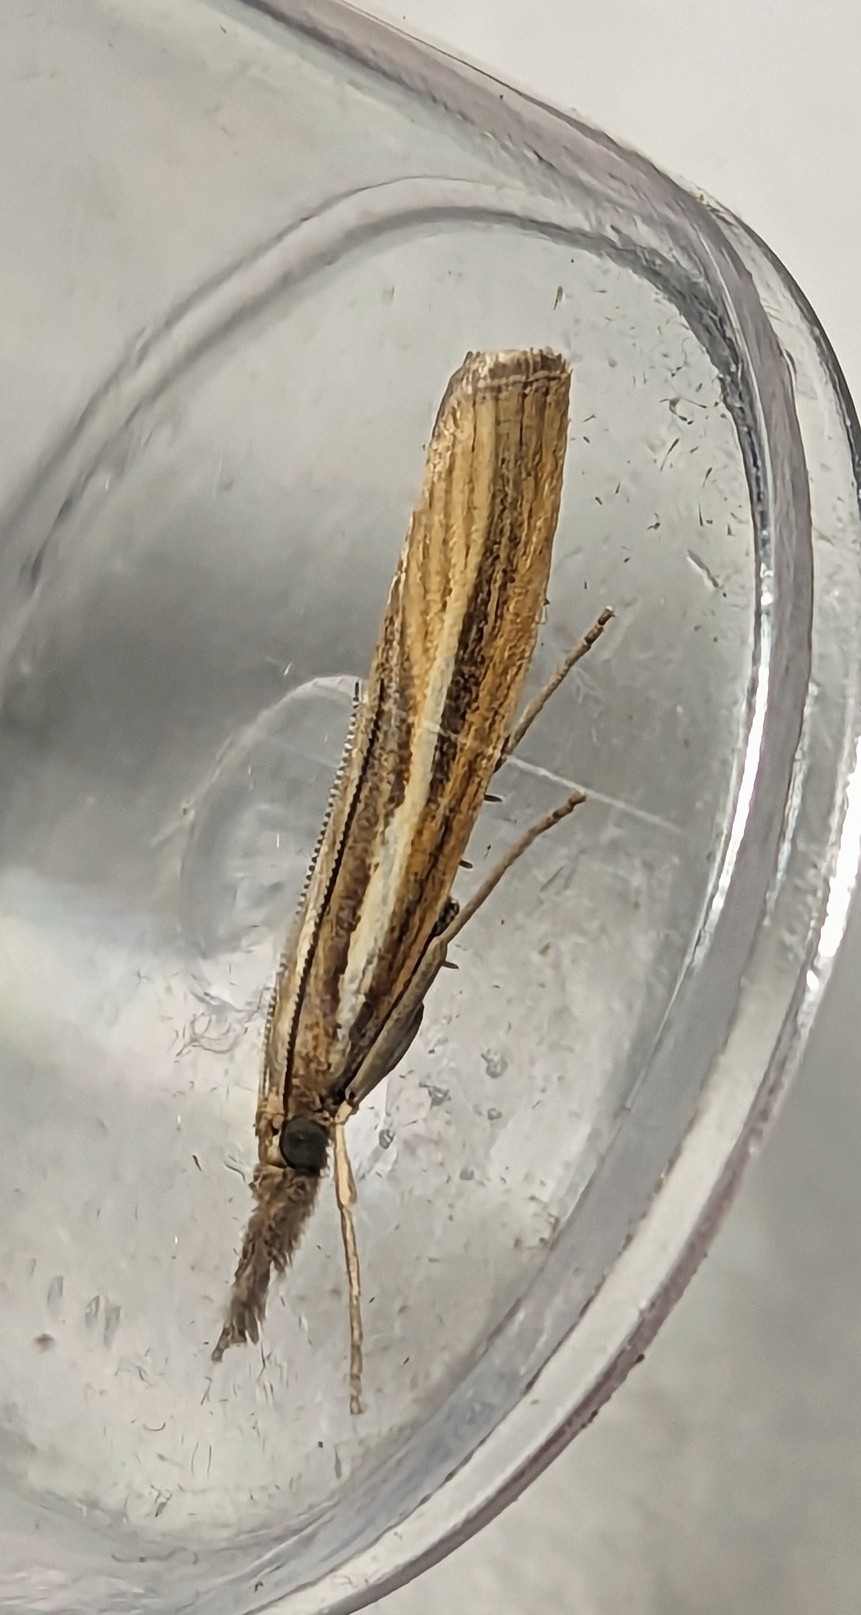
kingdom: Animalia
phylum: Arthropoda
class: Insecta
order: Lepidoptera
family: Crambidae
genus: Agriphila
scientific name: Agriphila tristellus
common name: Common grass-veneer
